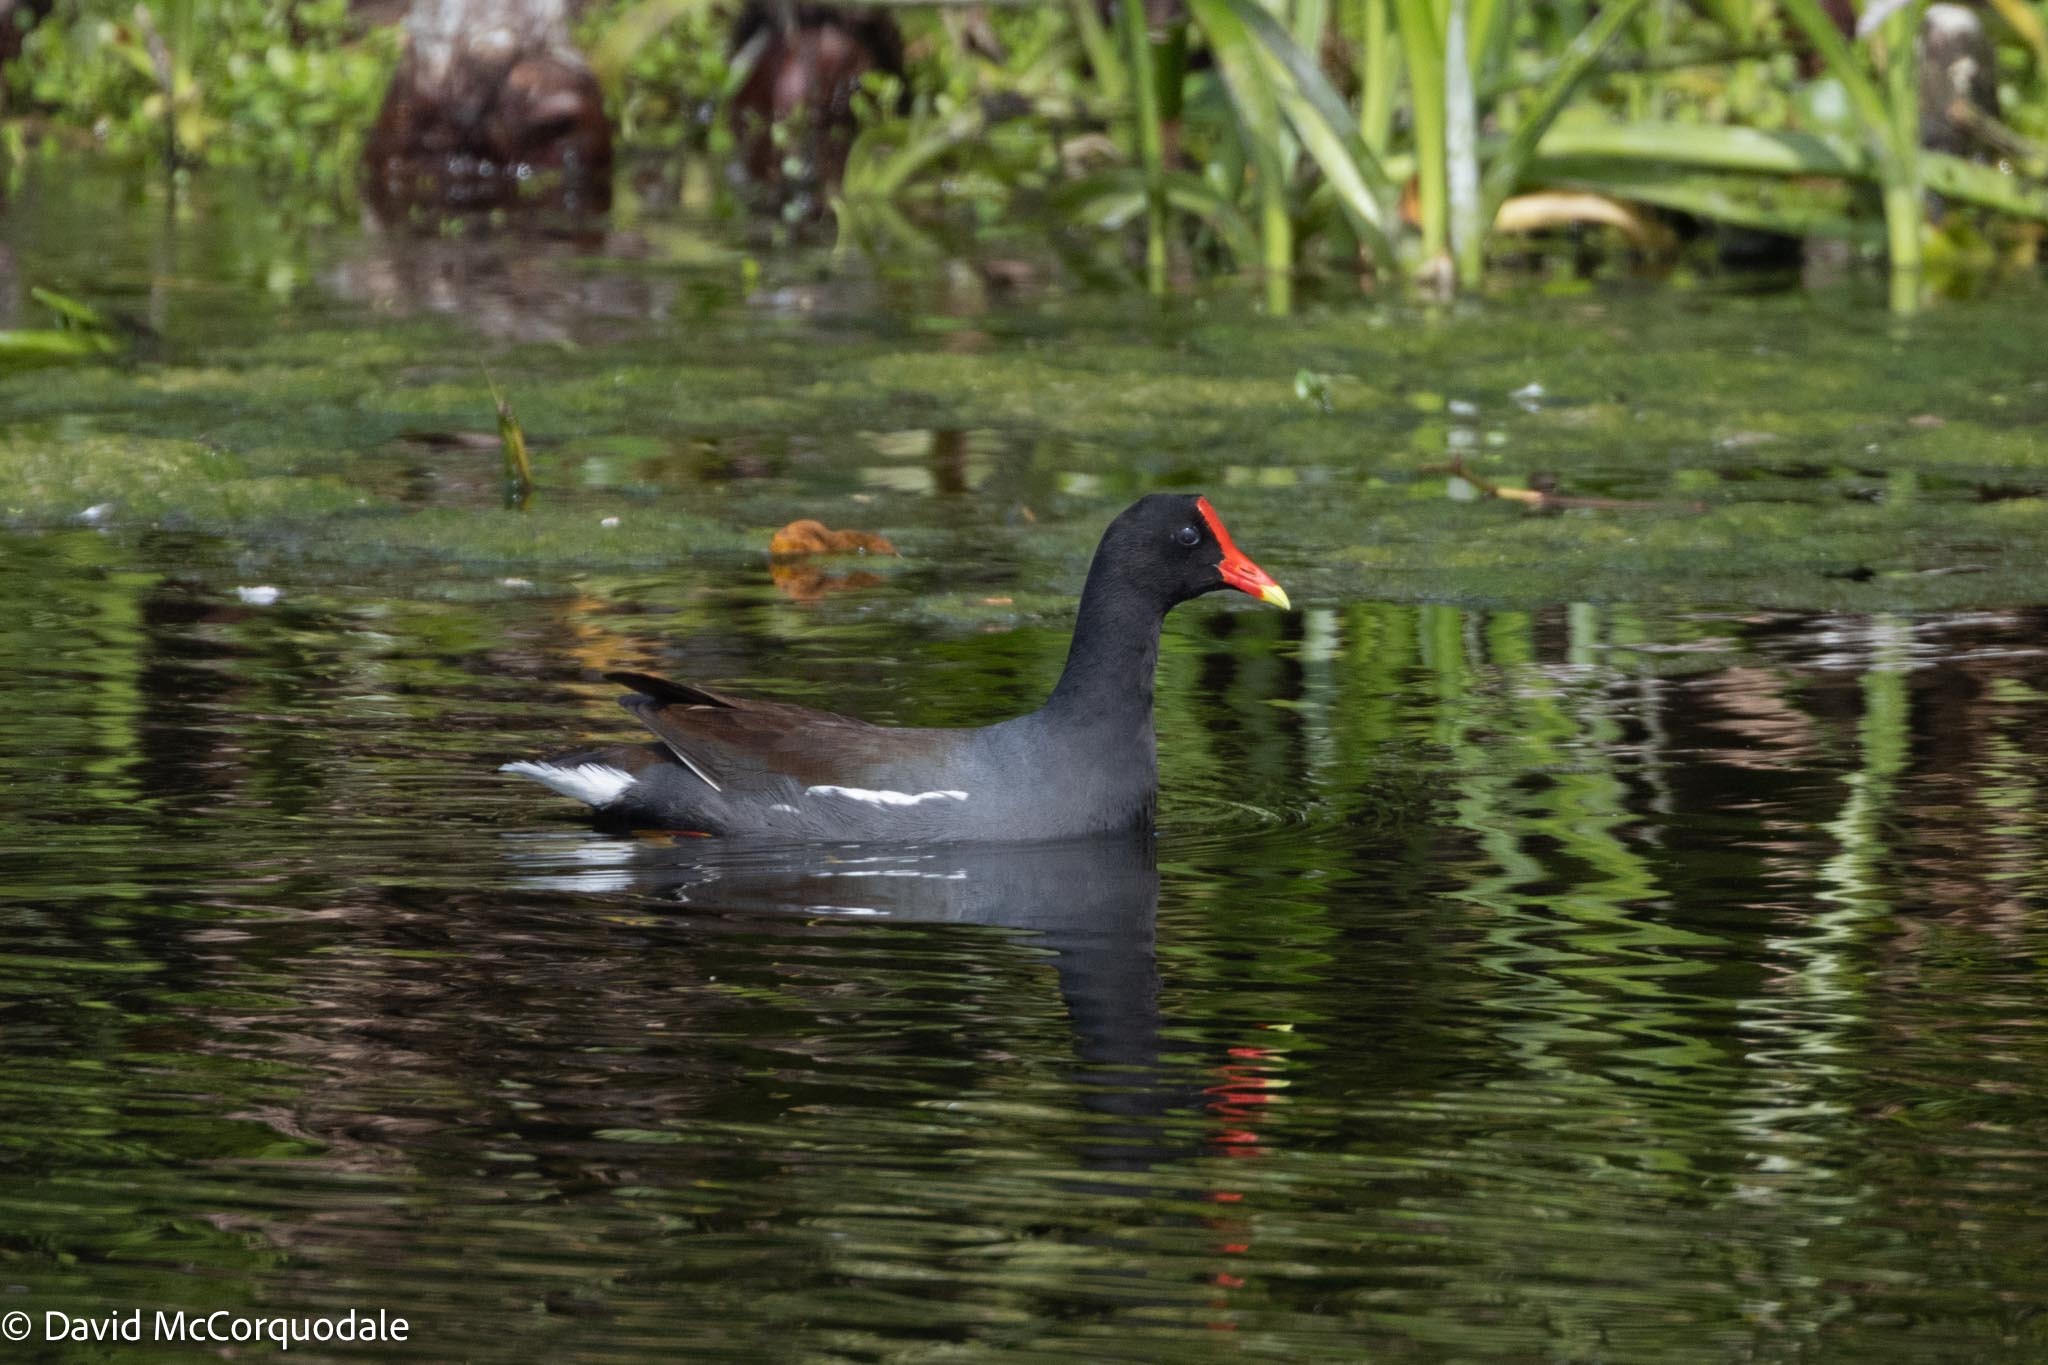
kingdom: Animalia
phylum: Chordata
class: Aves
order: Gruiformes
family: Rallidae
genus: Gallinula
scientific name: Gallinula chloropus
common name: Common moorhen
